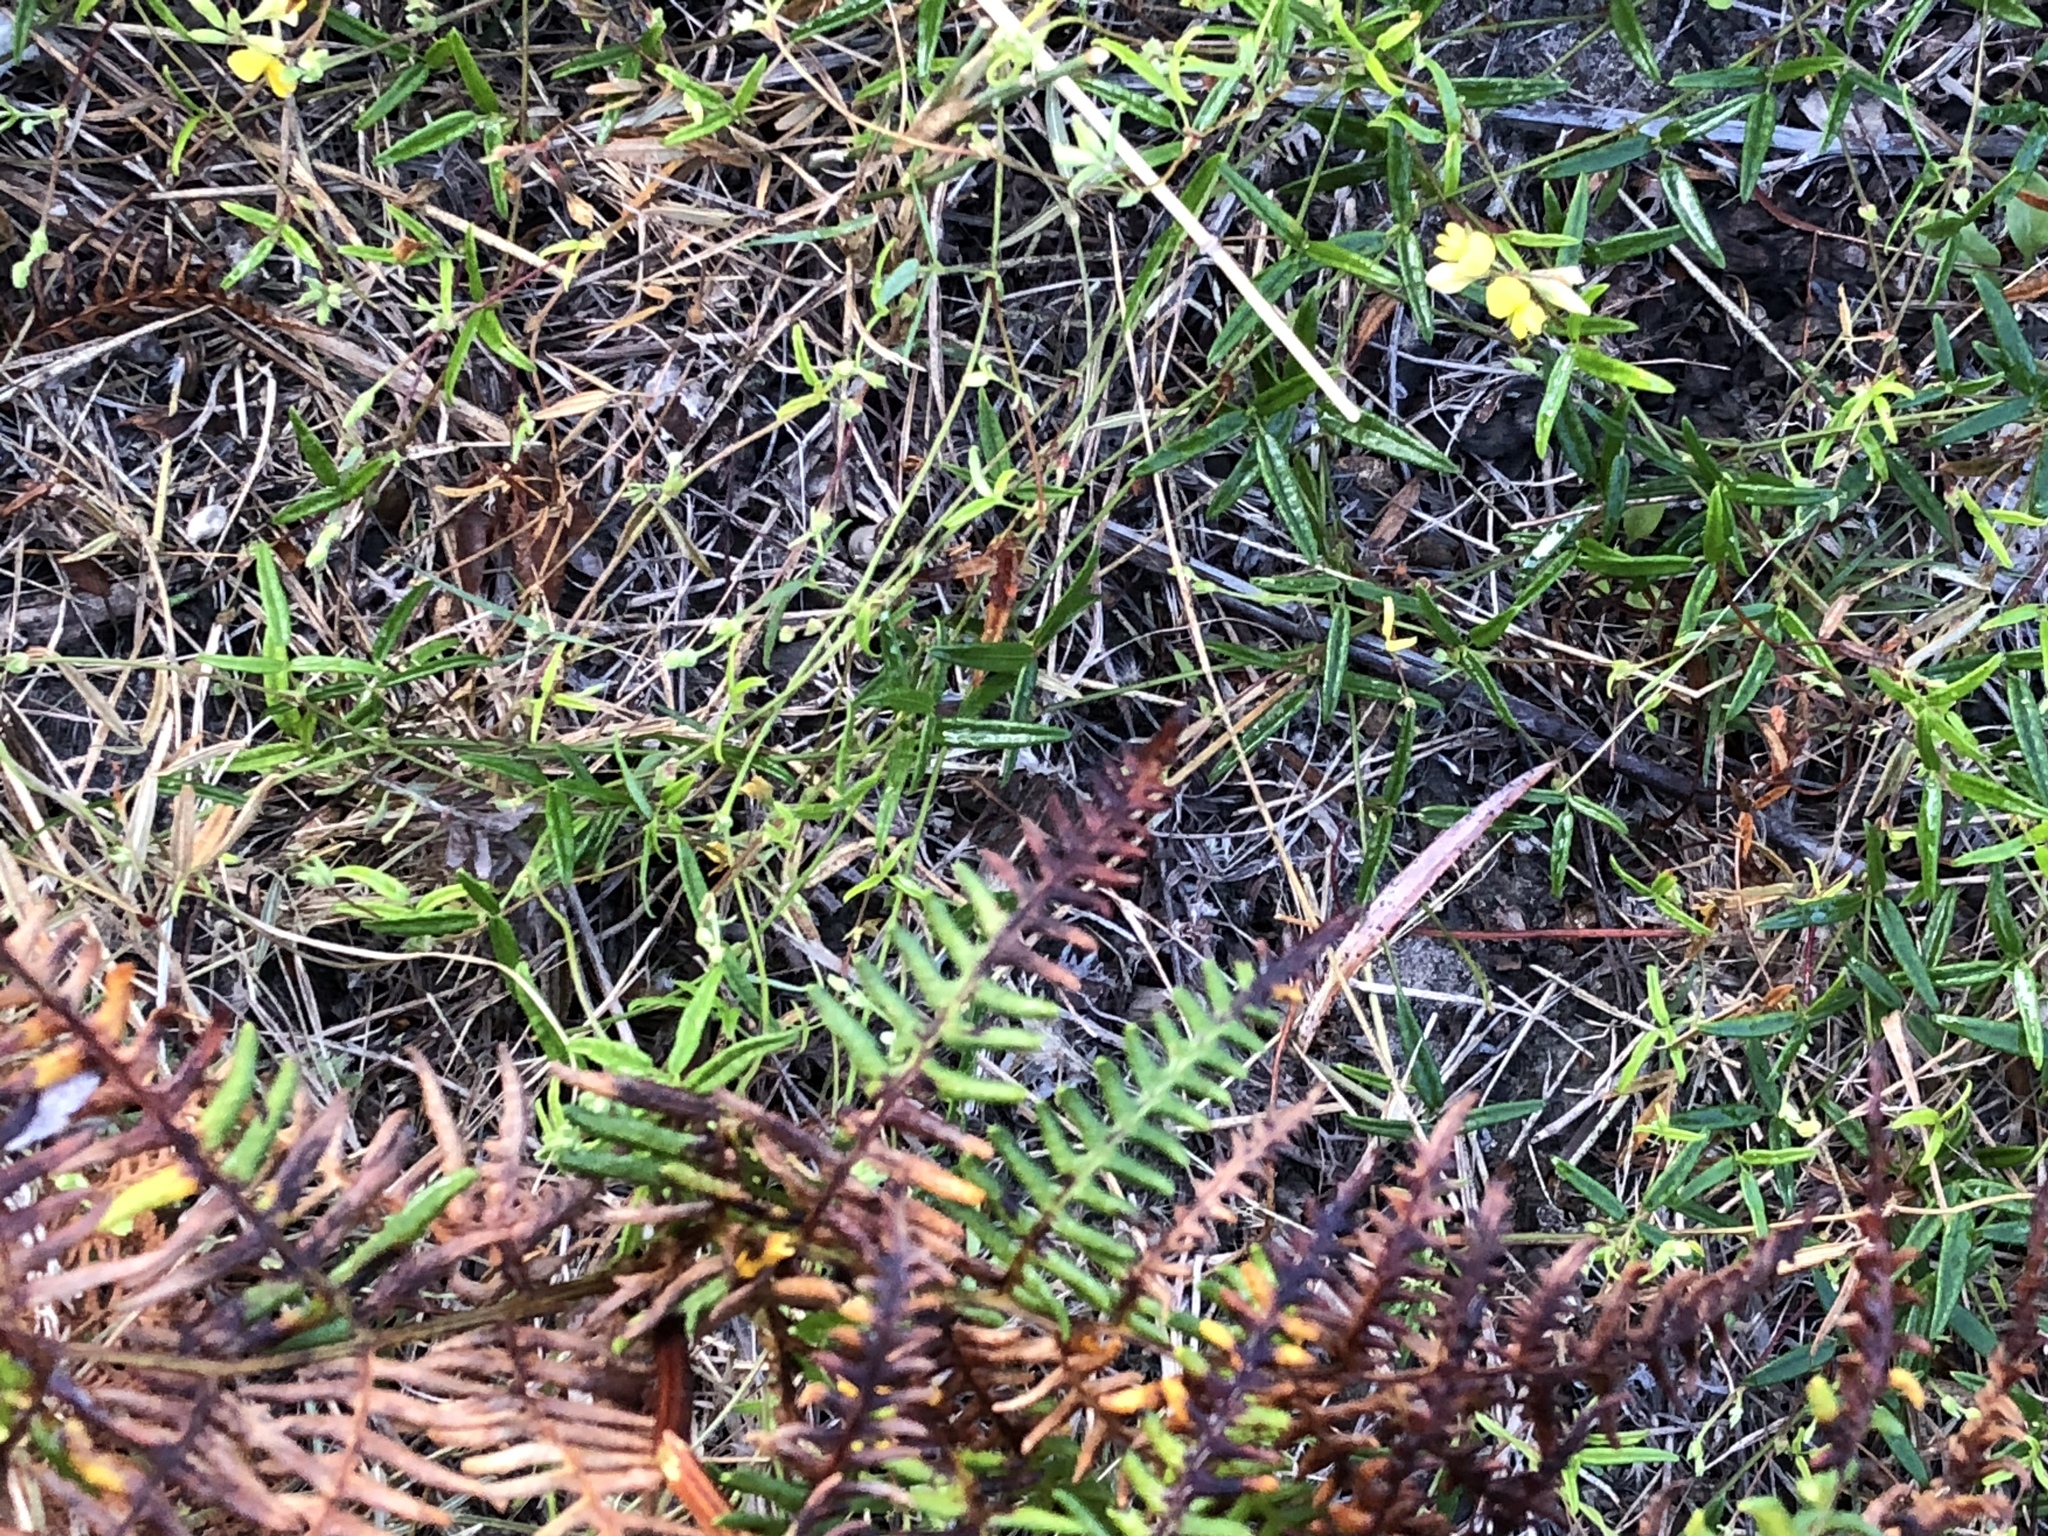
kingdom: Plantae
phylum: Tracheophyta
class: Magnoliopsida
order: Fabales
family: Fabaceae
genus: Rhynchosia
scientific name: Rhynchosia leucoscias
